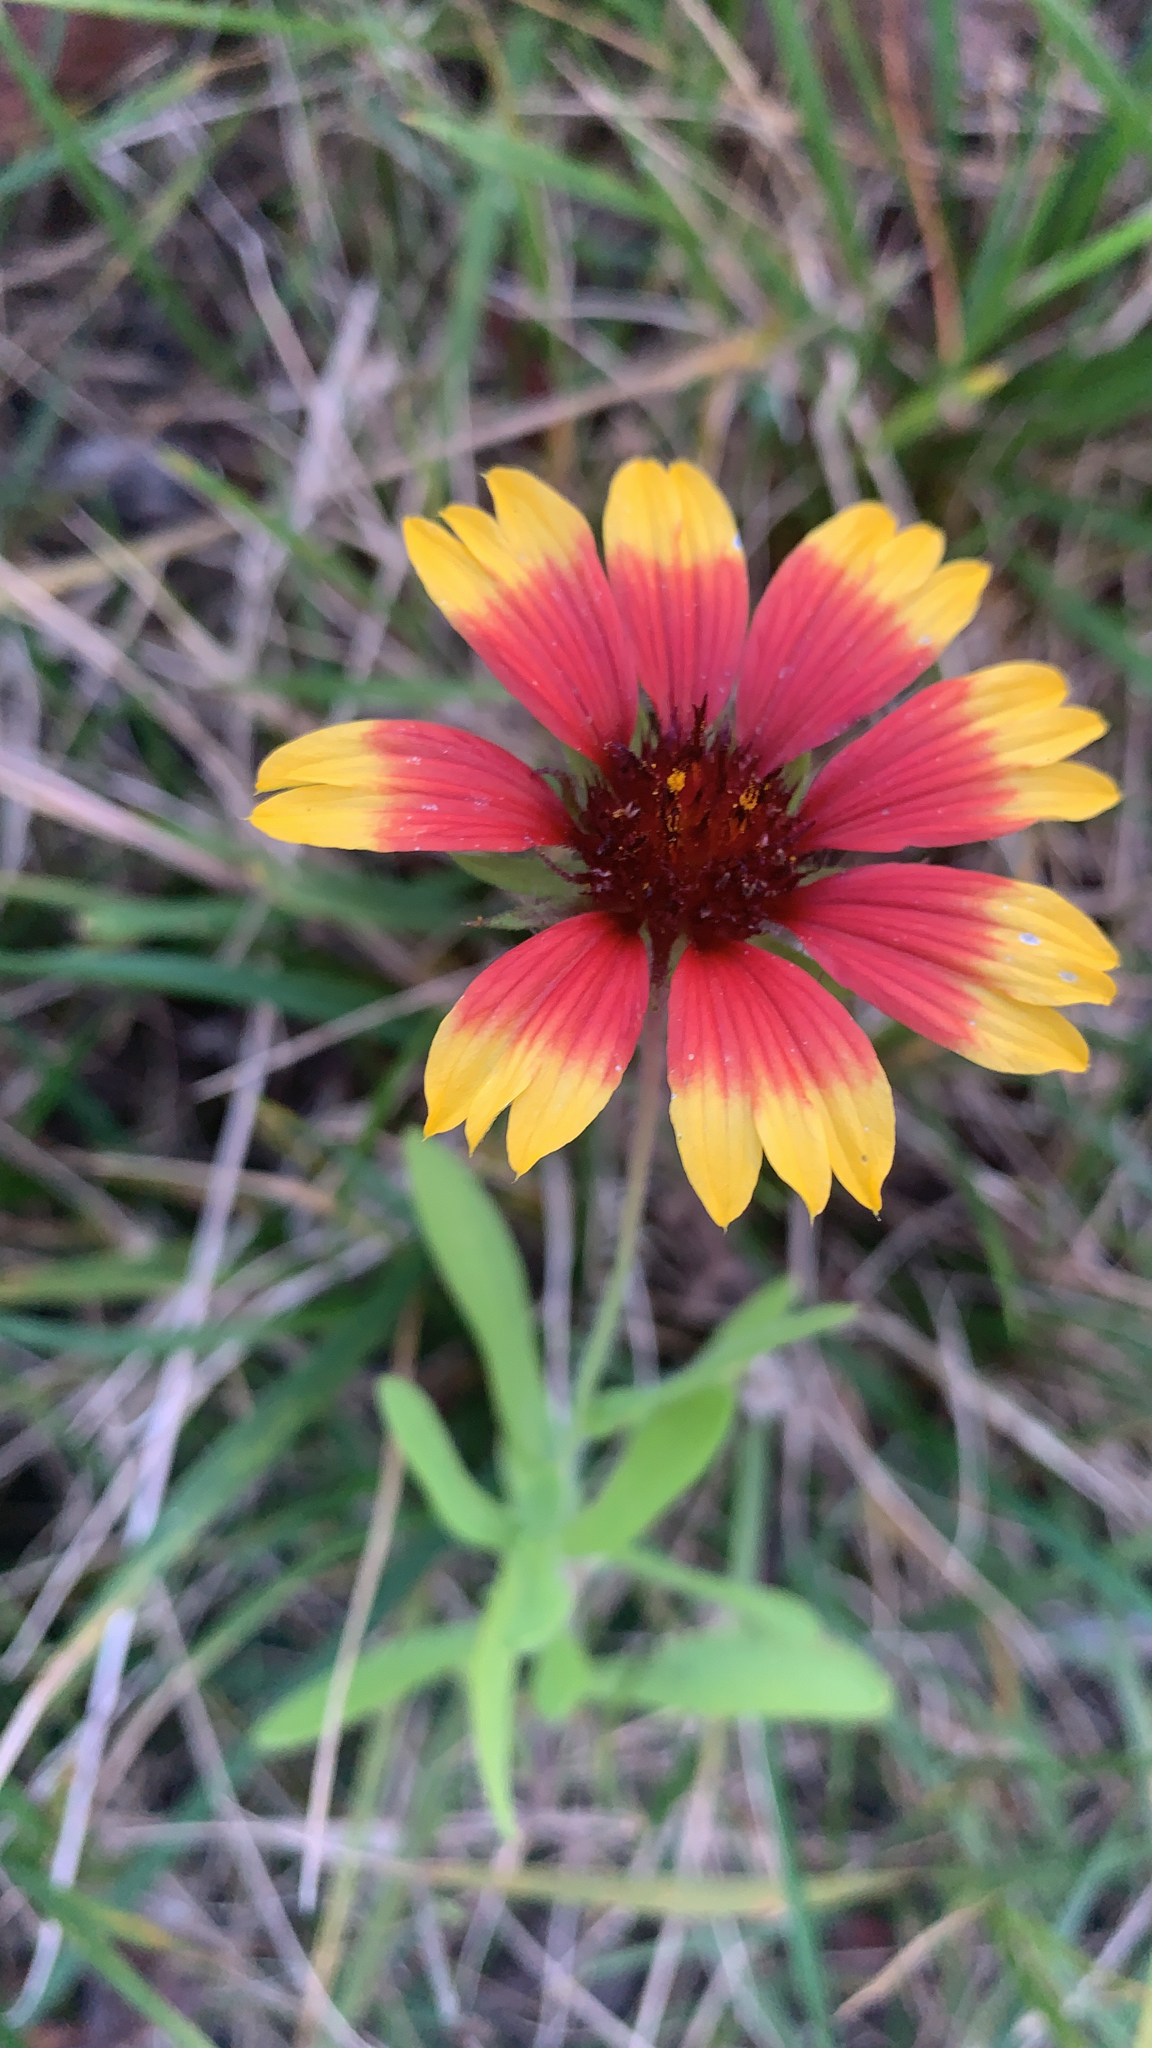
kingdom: Plantae
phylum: Tracheophyta
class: Magnoliopsida
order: Asterales
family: Asteraceae
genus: Gaillardia
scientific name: Gaillardia pulchella
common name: Firewheel
